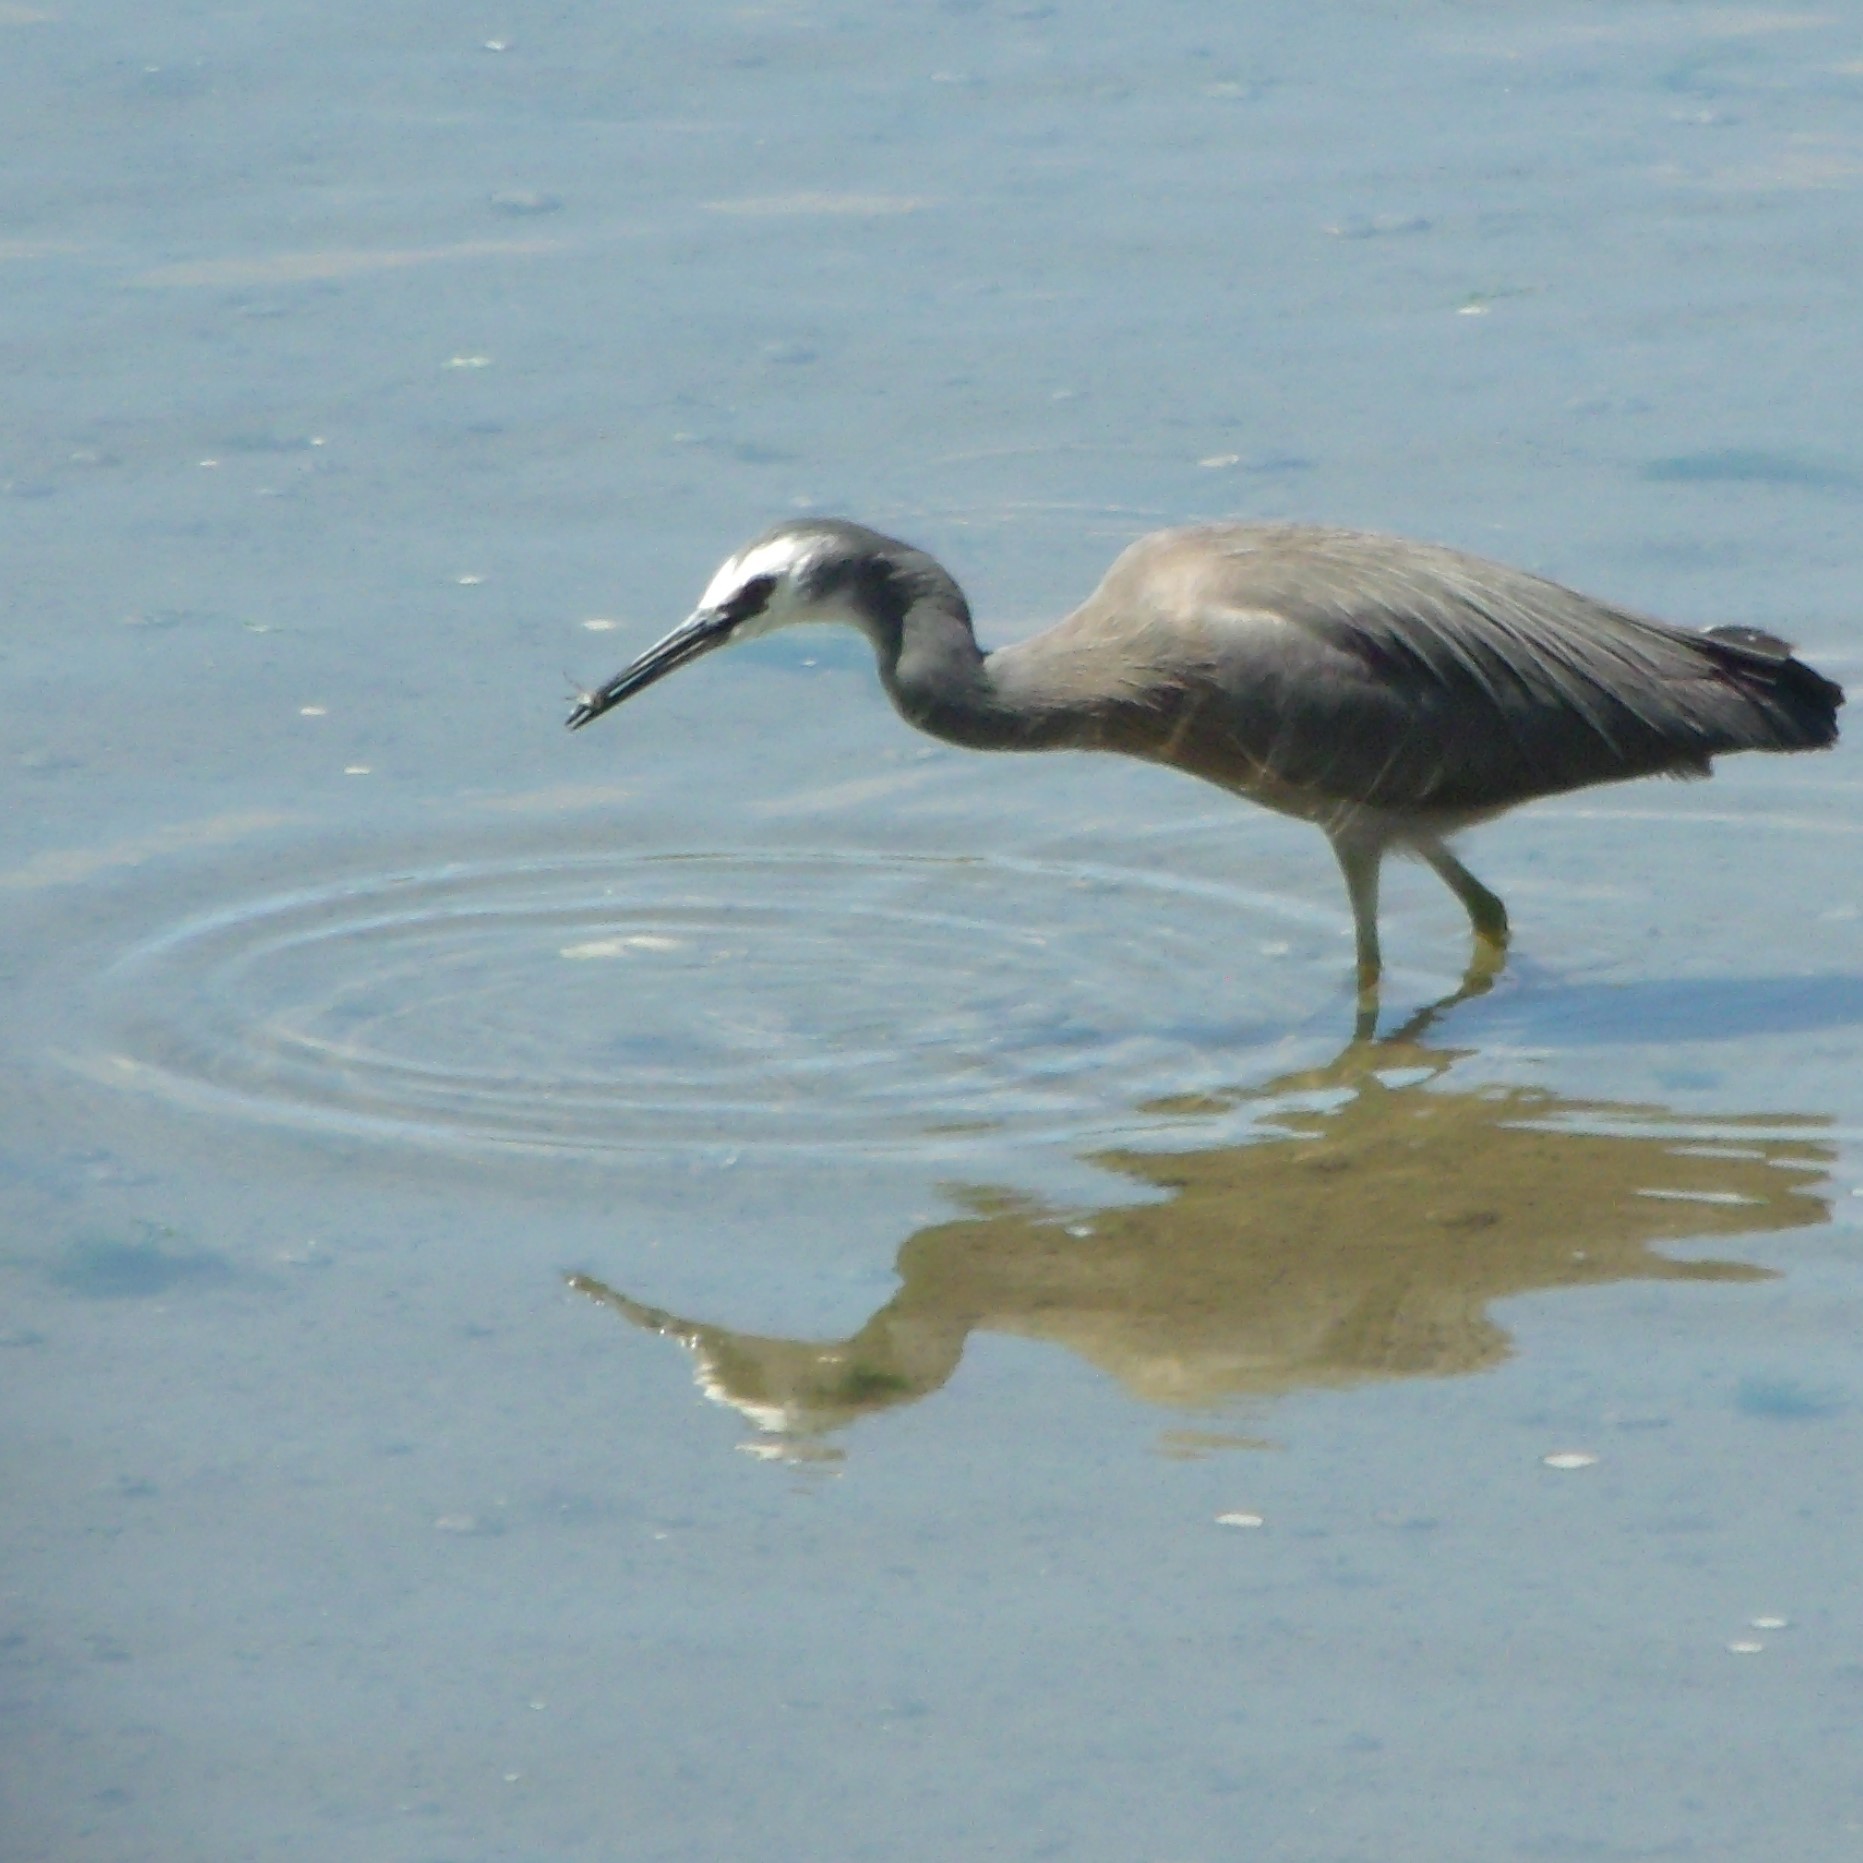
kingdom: Animalia
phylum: Chordata
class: Aves
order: Pelecaniformes
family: Ardeidae
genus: Egretta
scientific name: Egretta novaehollandiae
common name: White-faced heron
